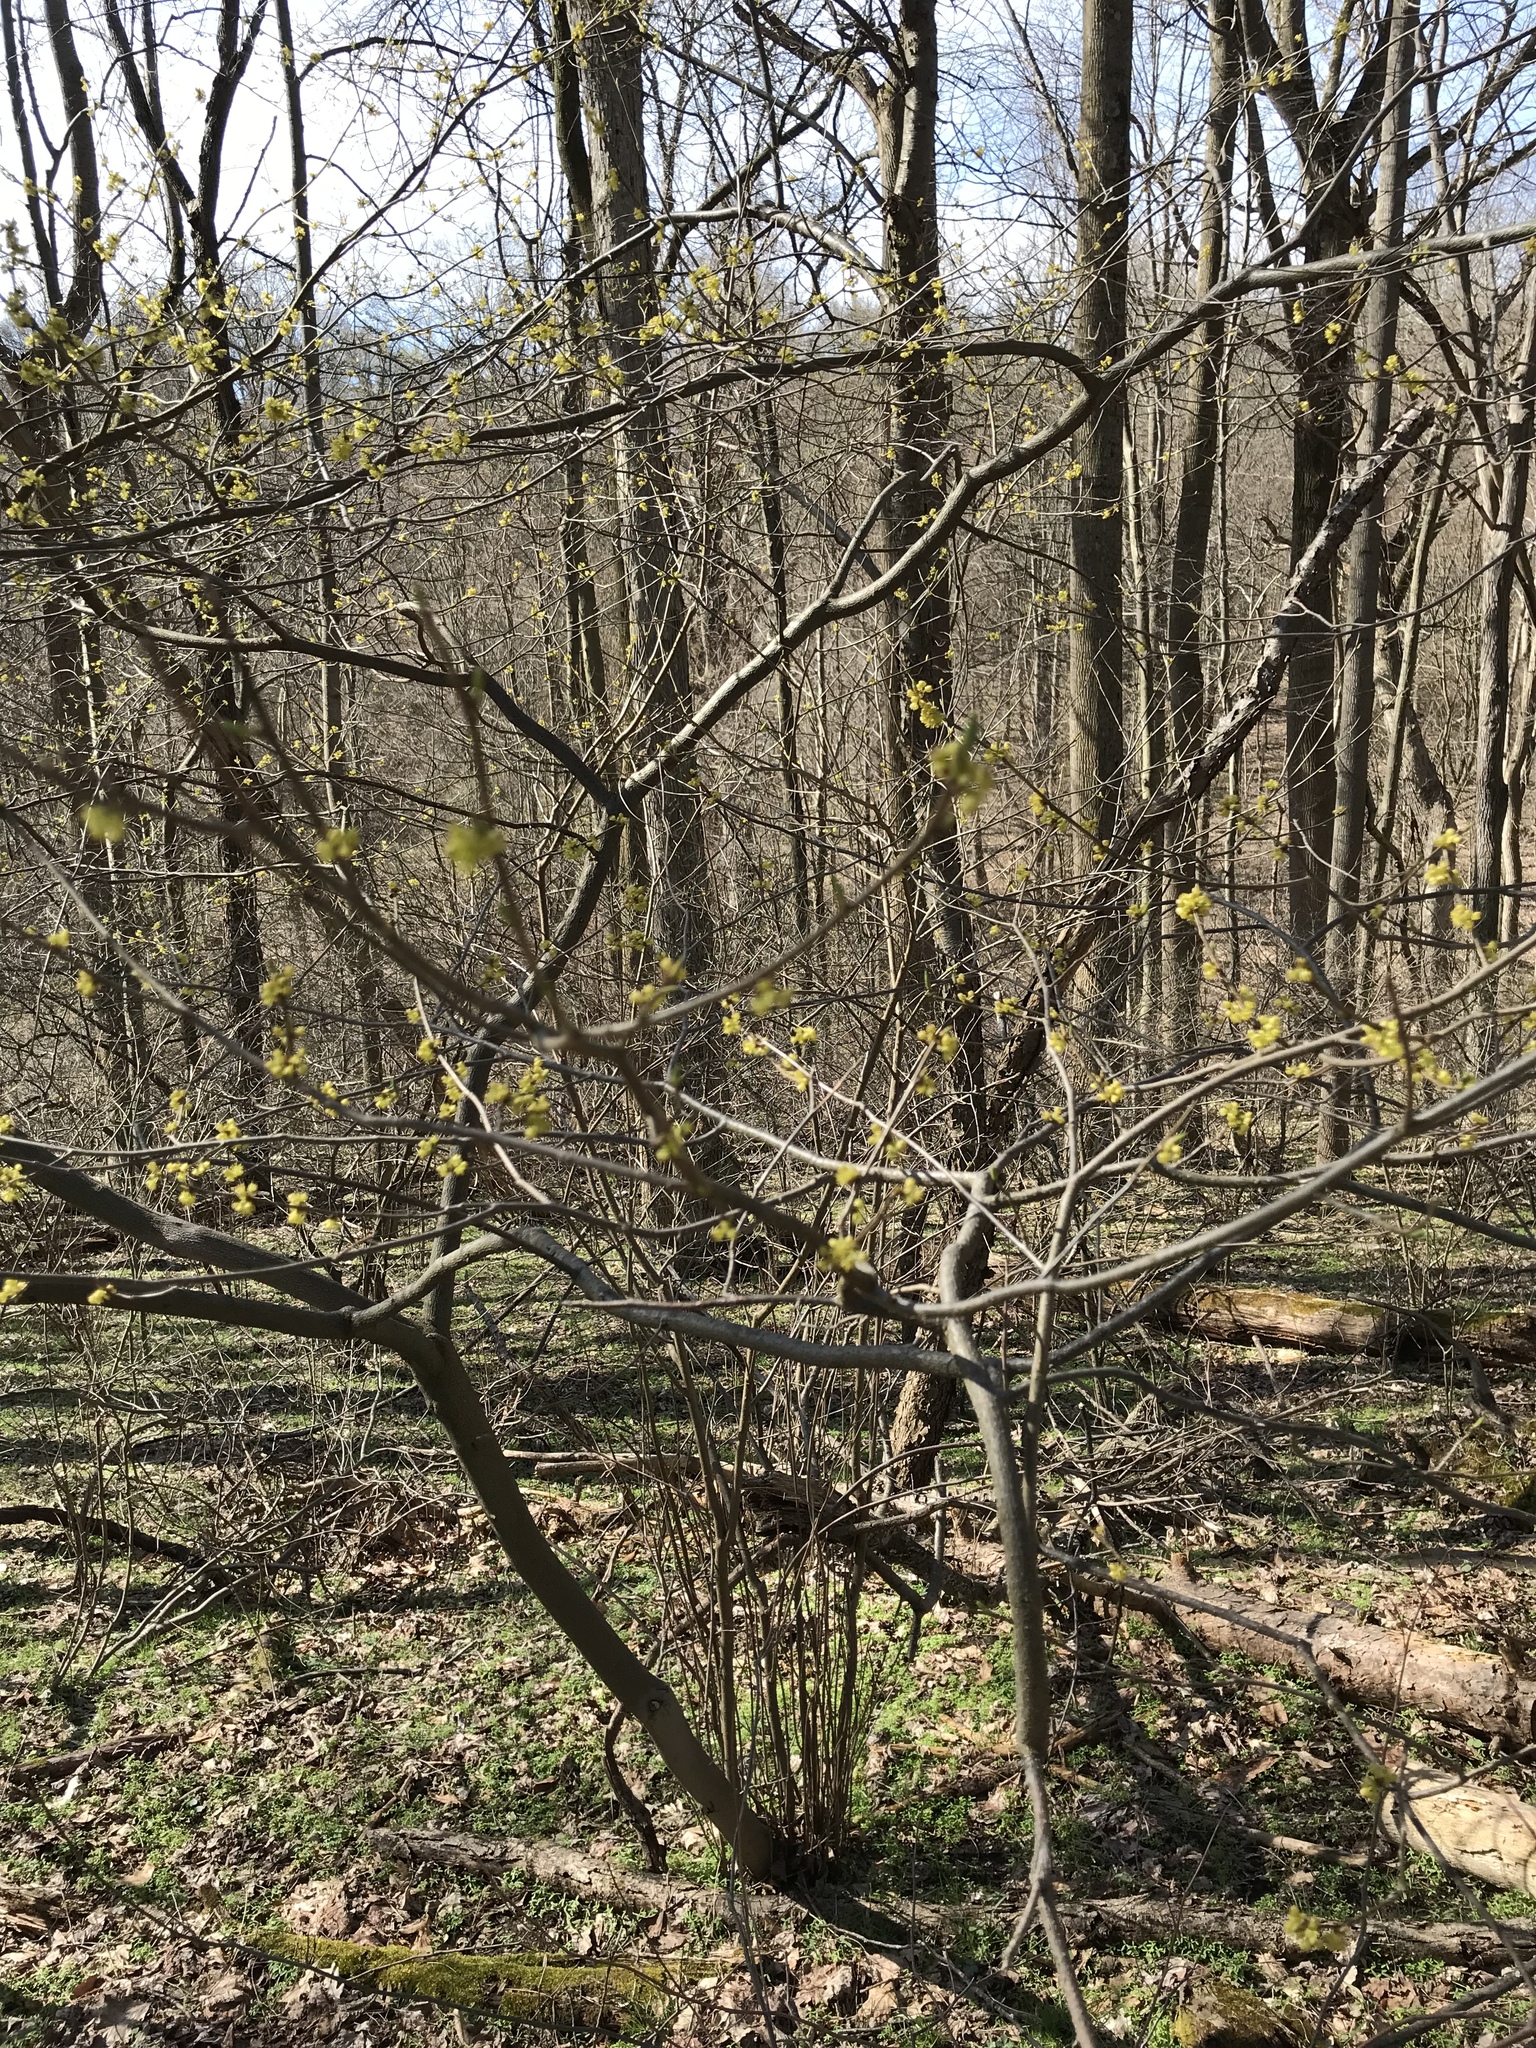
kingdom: Plantae
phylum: Tracheophyta
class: Magnoliopsida
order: Laurales
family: Lauraceae
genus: Lindera
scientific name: Lindera benzoin
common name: Spicebush
